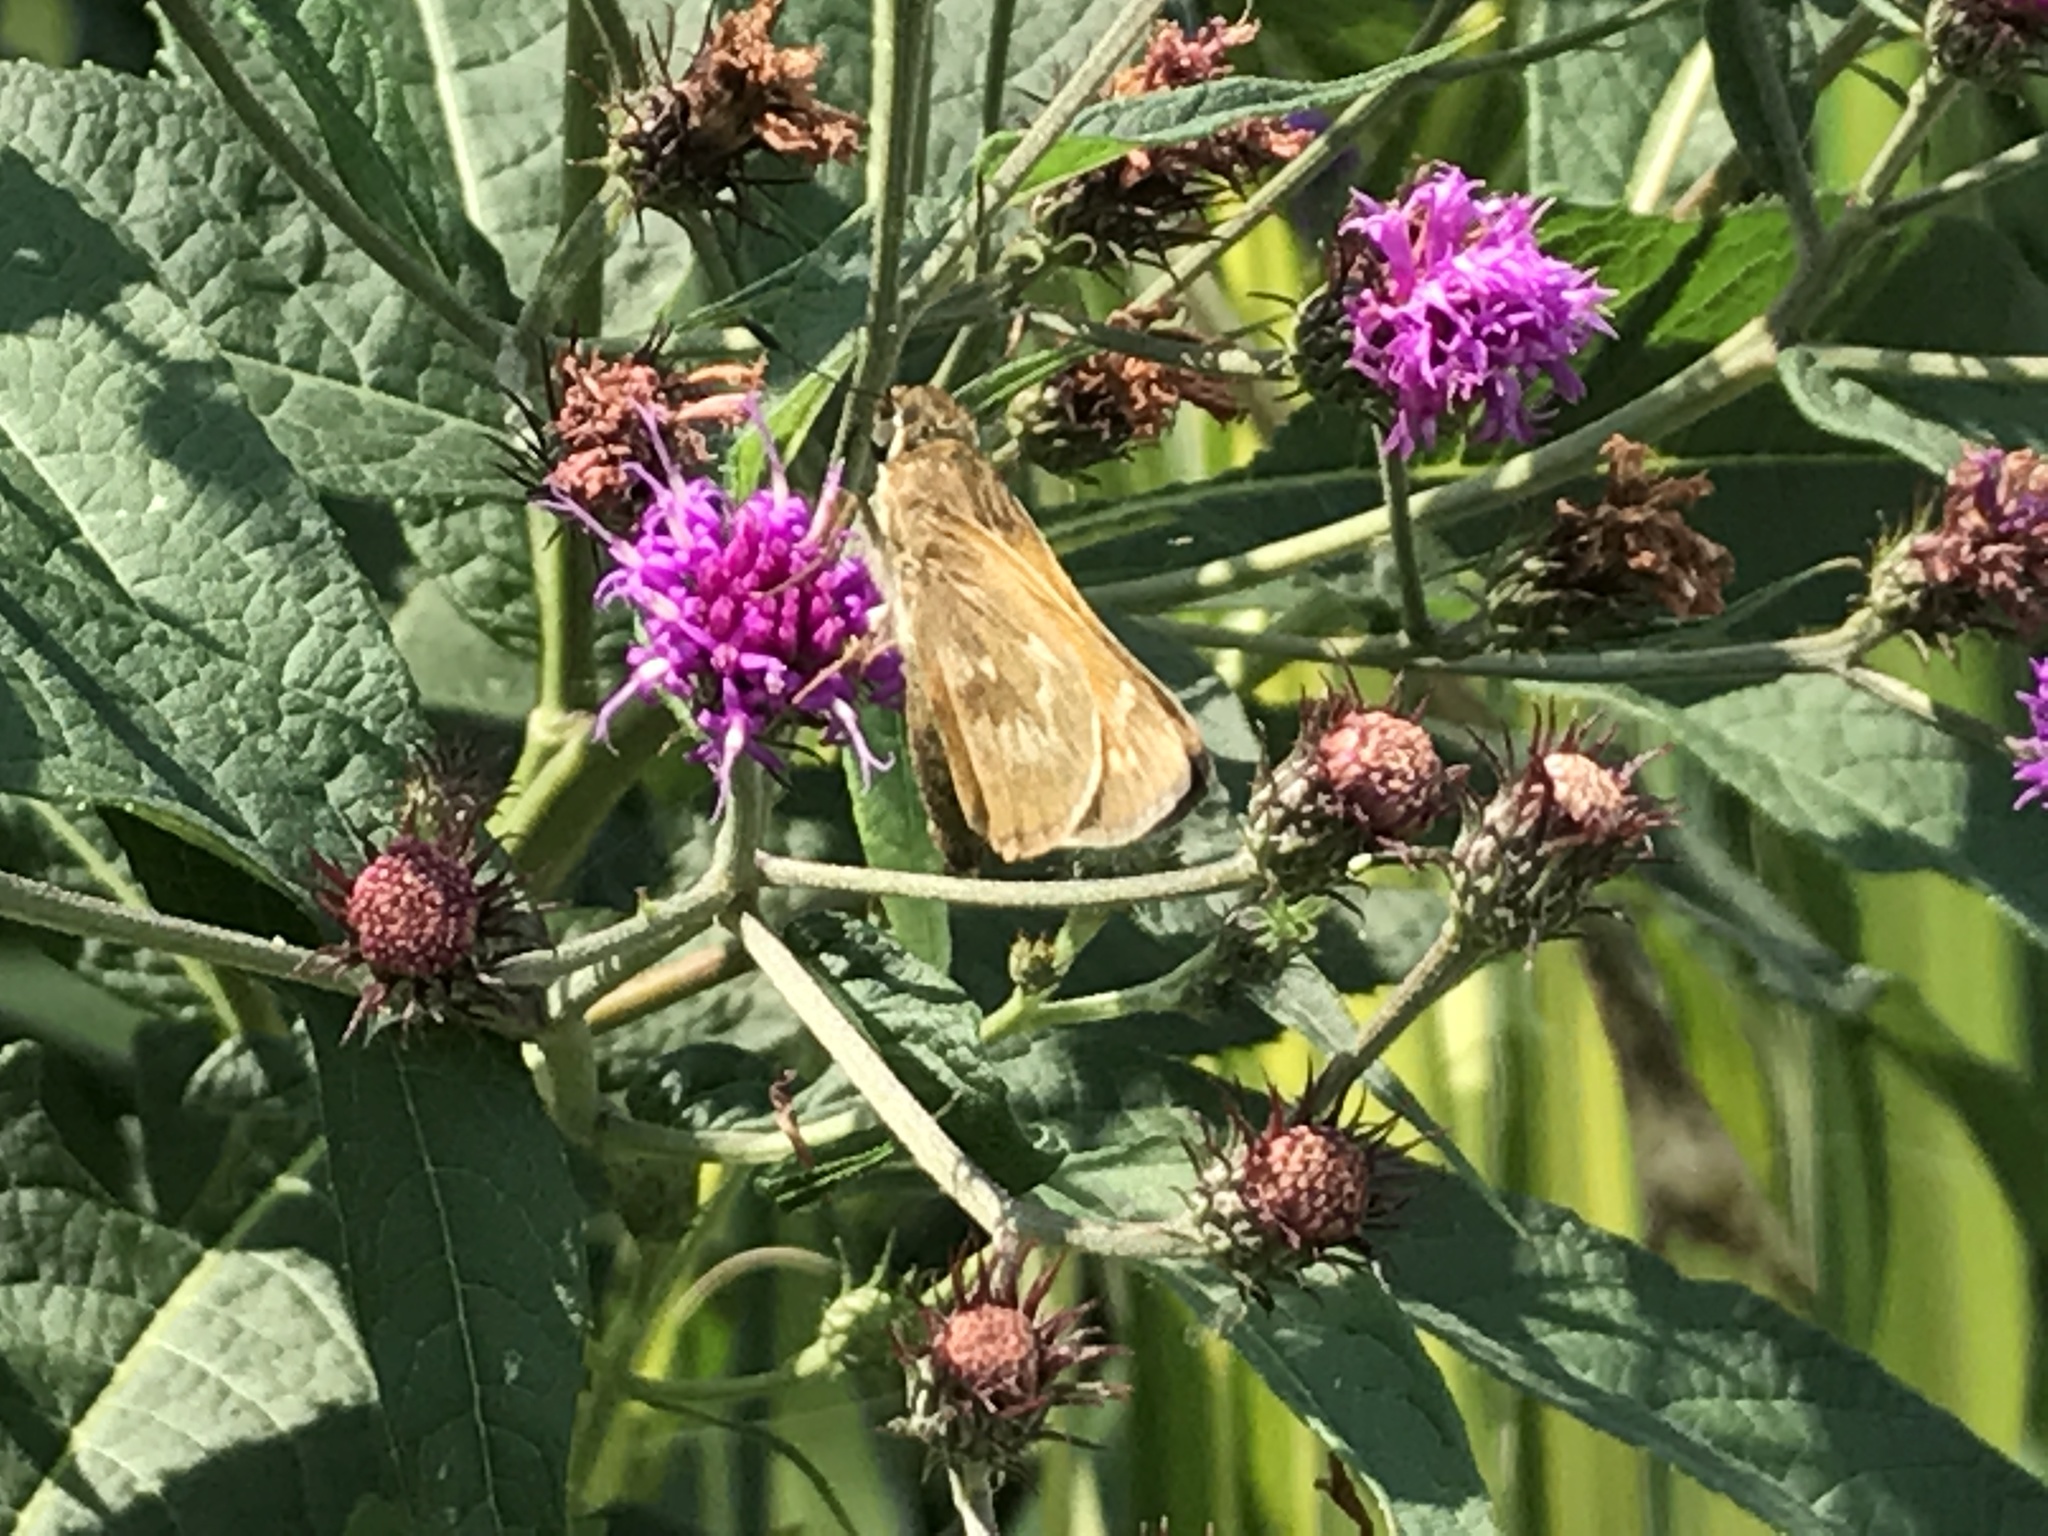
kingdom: Animalia
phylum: Arthropoda
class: Insecta
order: Lepidoptera
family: Hesperiidae
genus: Atalopedes
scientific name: Atalopedes
